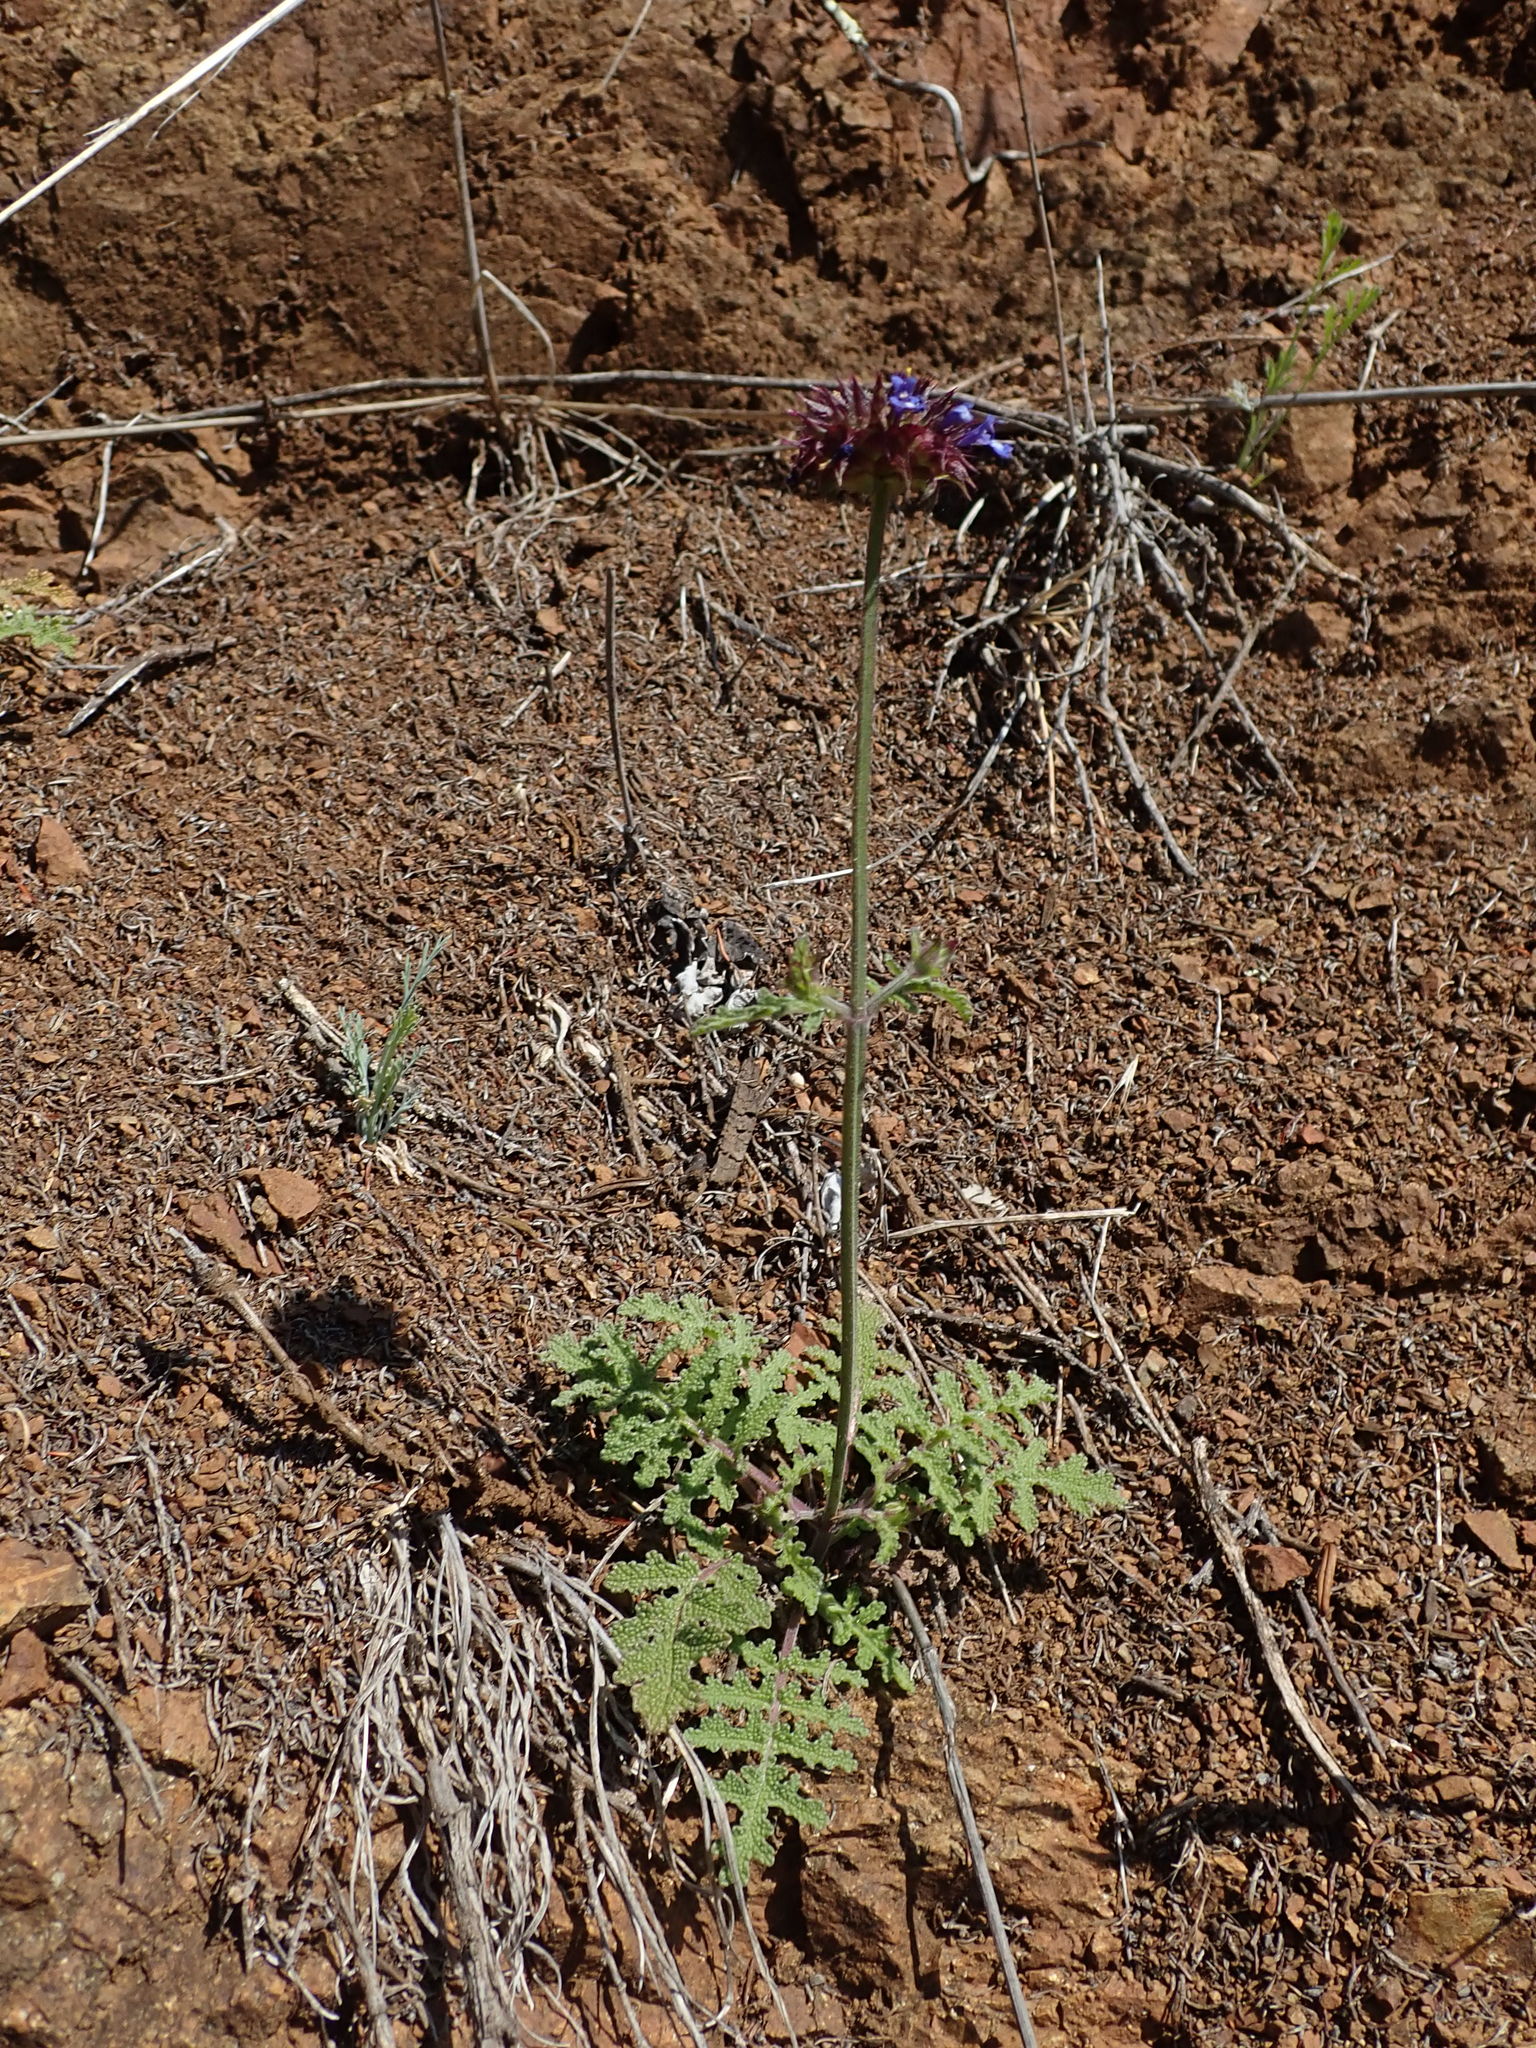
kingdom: Plantae
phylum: Tracheophyta
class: Magnoliopsida
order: Lamiales
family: Lamiaceae
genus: Salvia
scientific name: Salvia columbariae
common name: Chia
